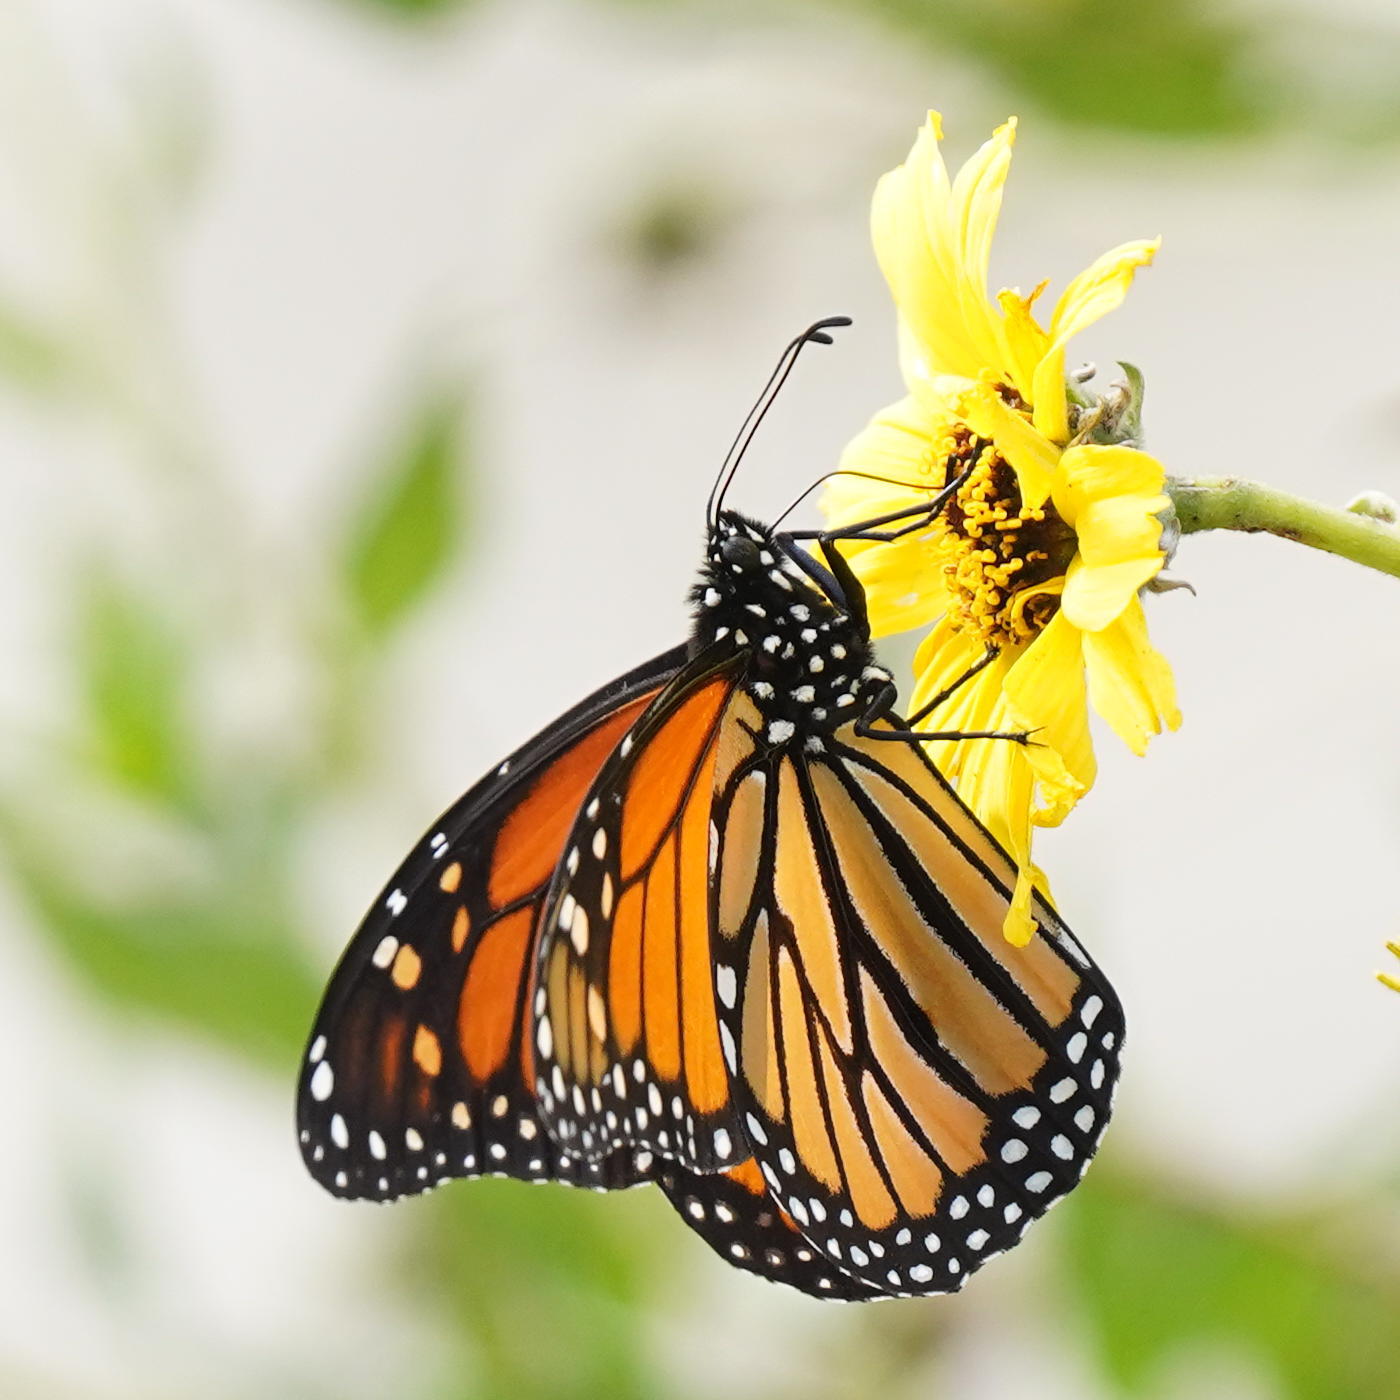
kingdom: Animalia
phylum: Arthropoda
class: Insecta
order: Lepidoptera
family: Nymphalidae
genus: Danaus
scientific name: Danaus plexippus
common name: Monarch
